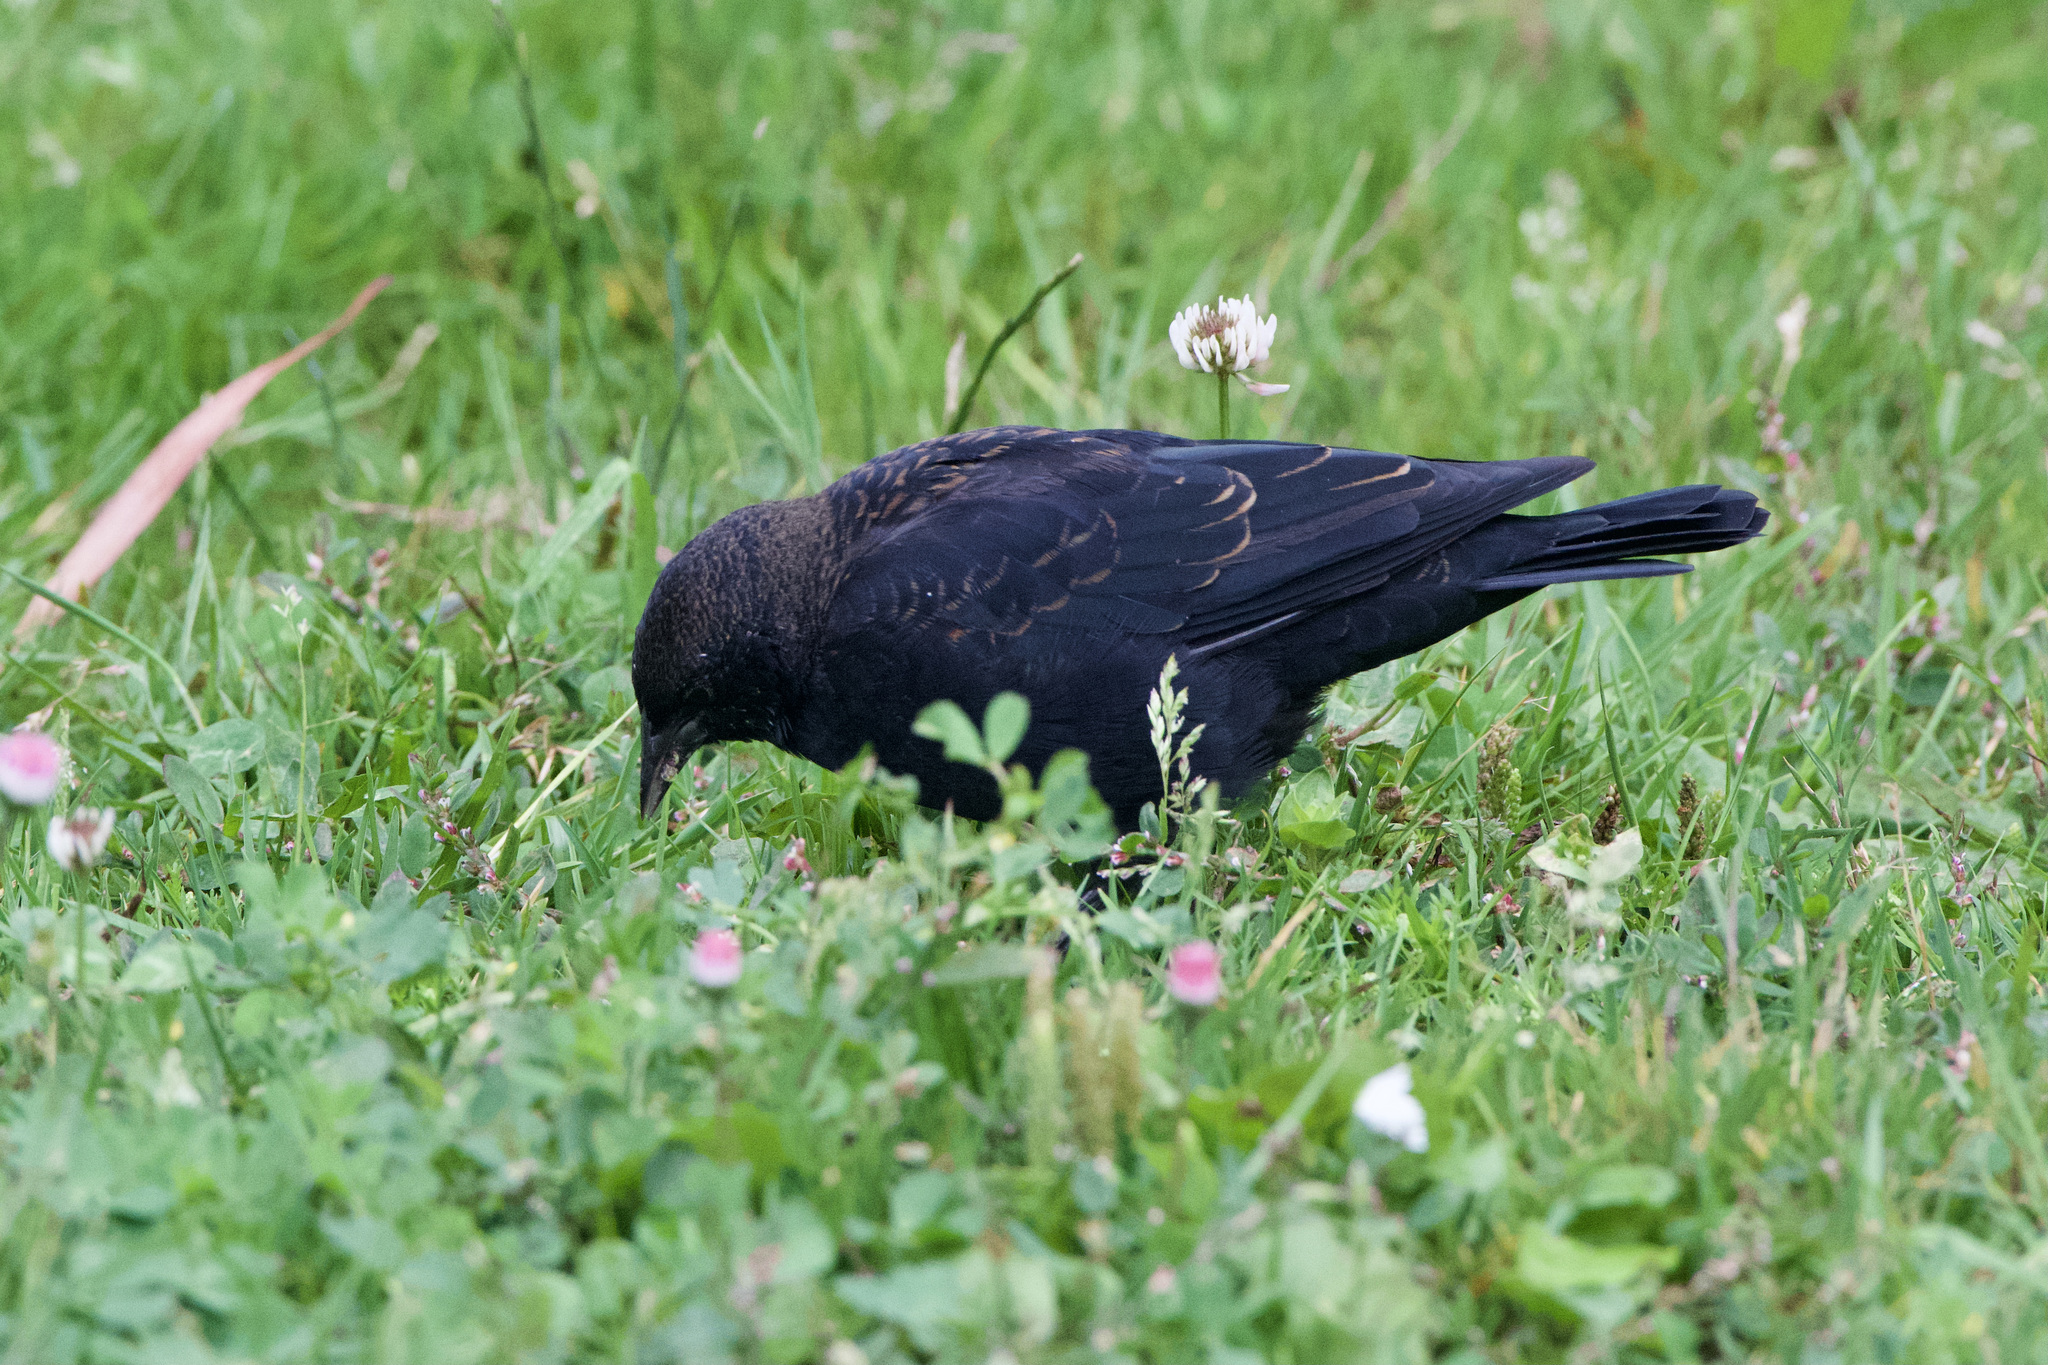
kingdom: Animalia
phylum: Chordata
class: Aves
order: Passeriformes
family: Icteridae
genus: Agelaius
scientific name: Agelaius phoeniceus
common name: Red-winged blackbird
